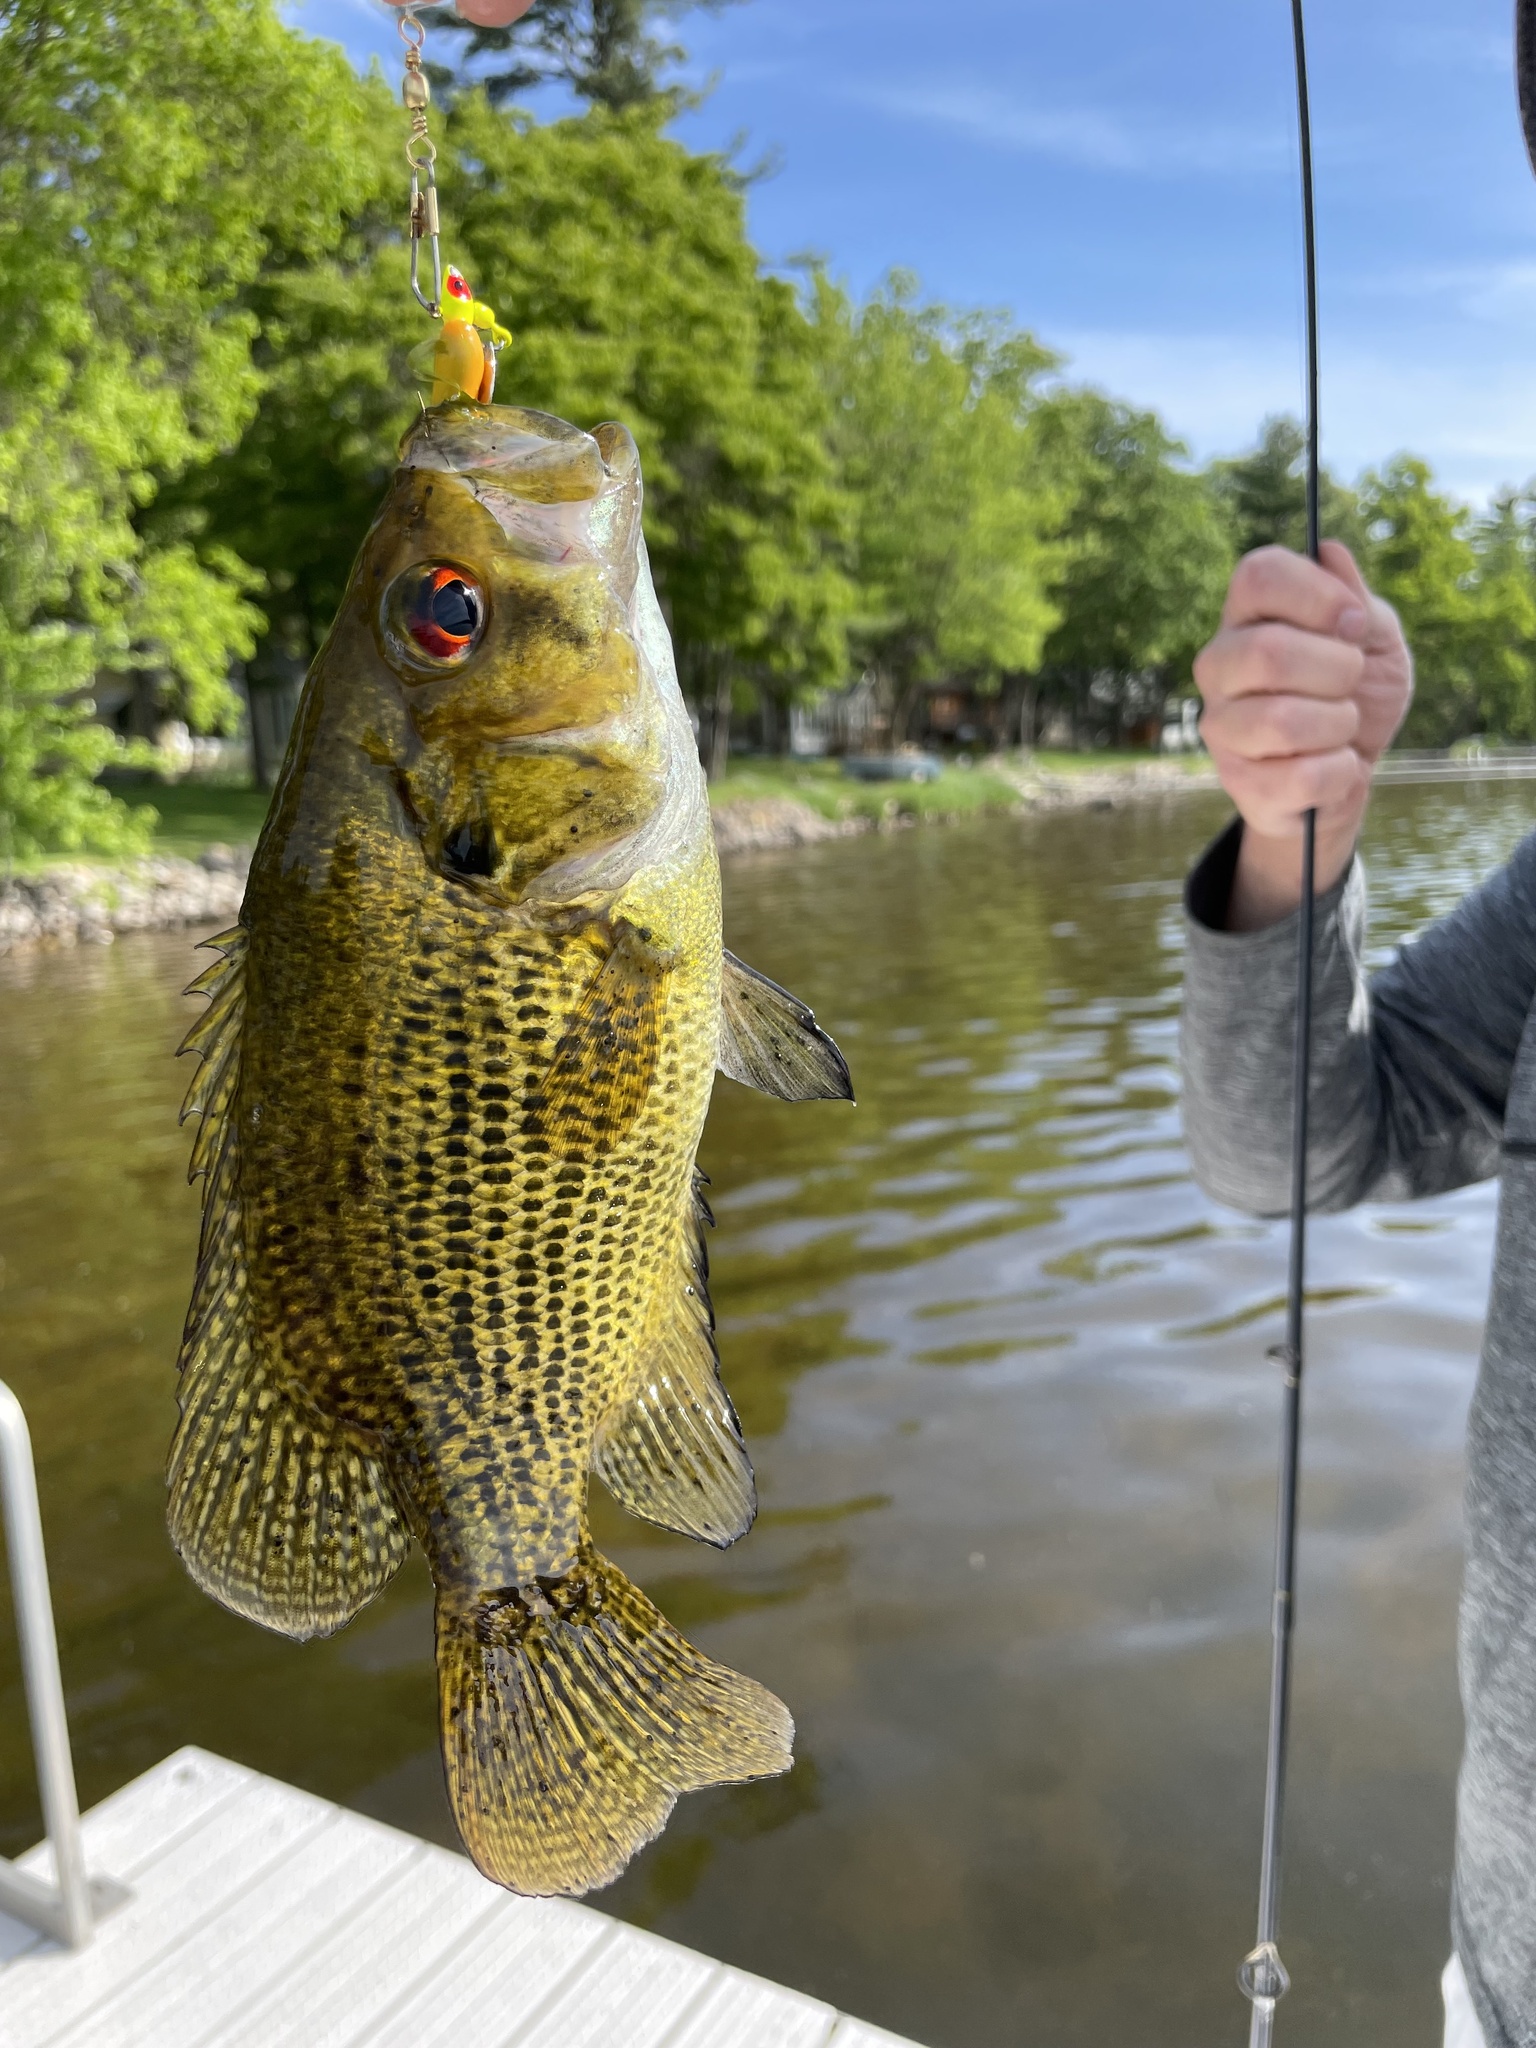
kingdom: Animalia
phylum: Chordata
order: Perciformes
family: Centrarchidae
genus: Ambloplites
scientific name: Ambloplites rupestris
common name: Rock bass
